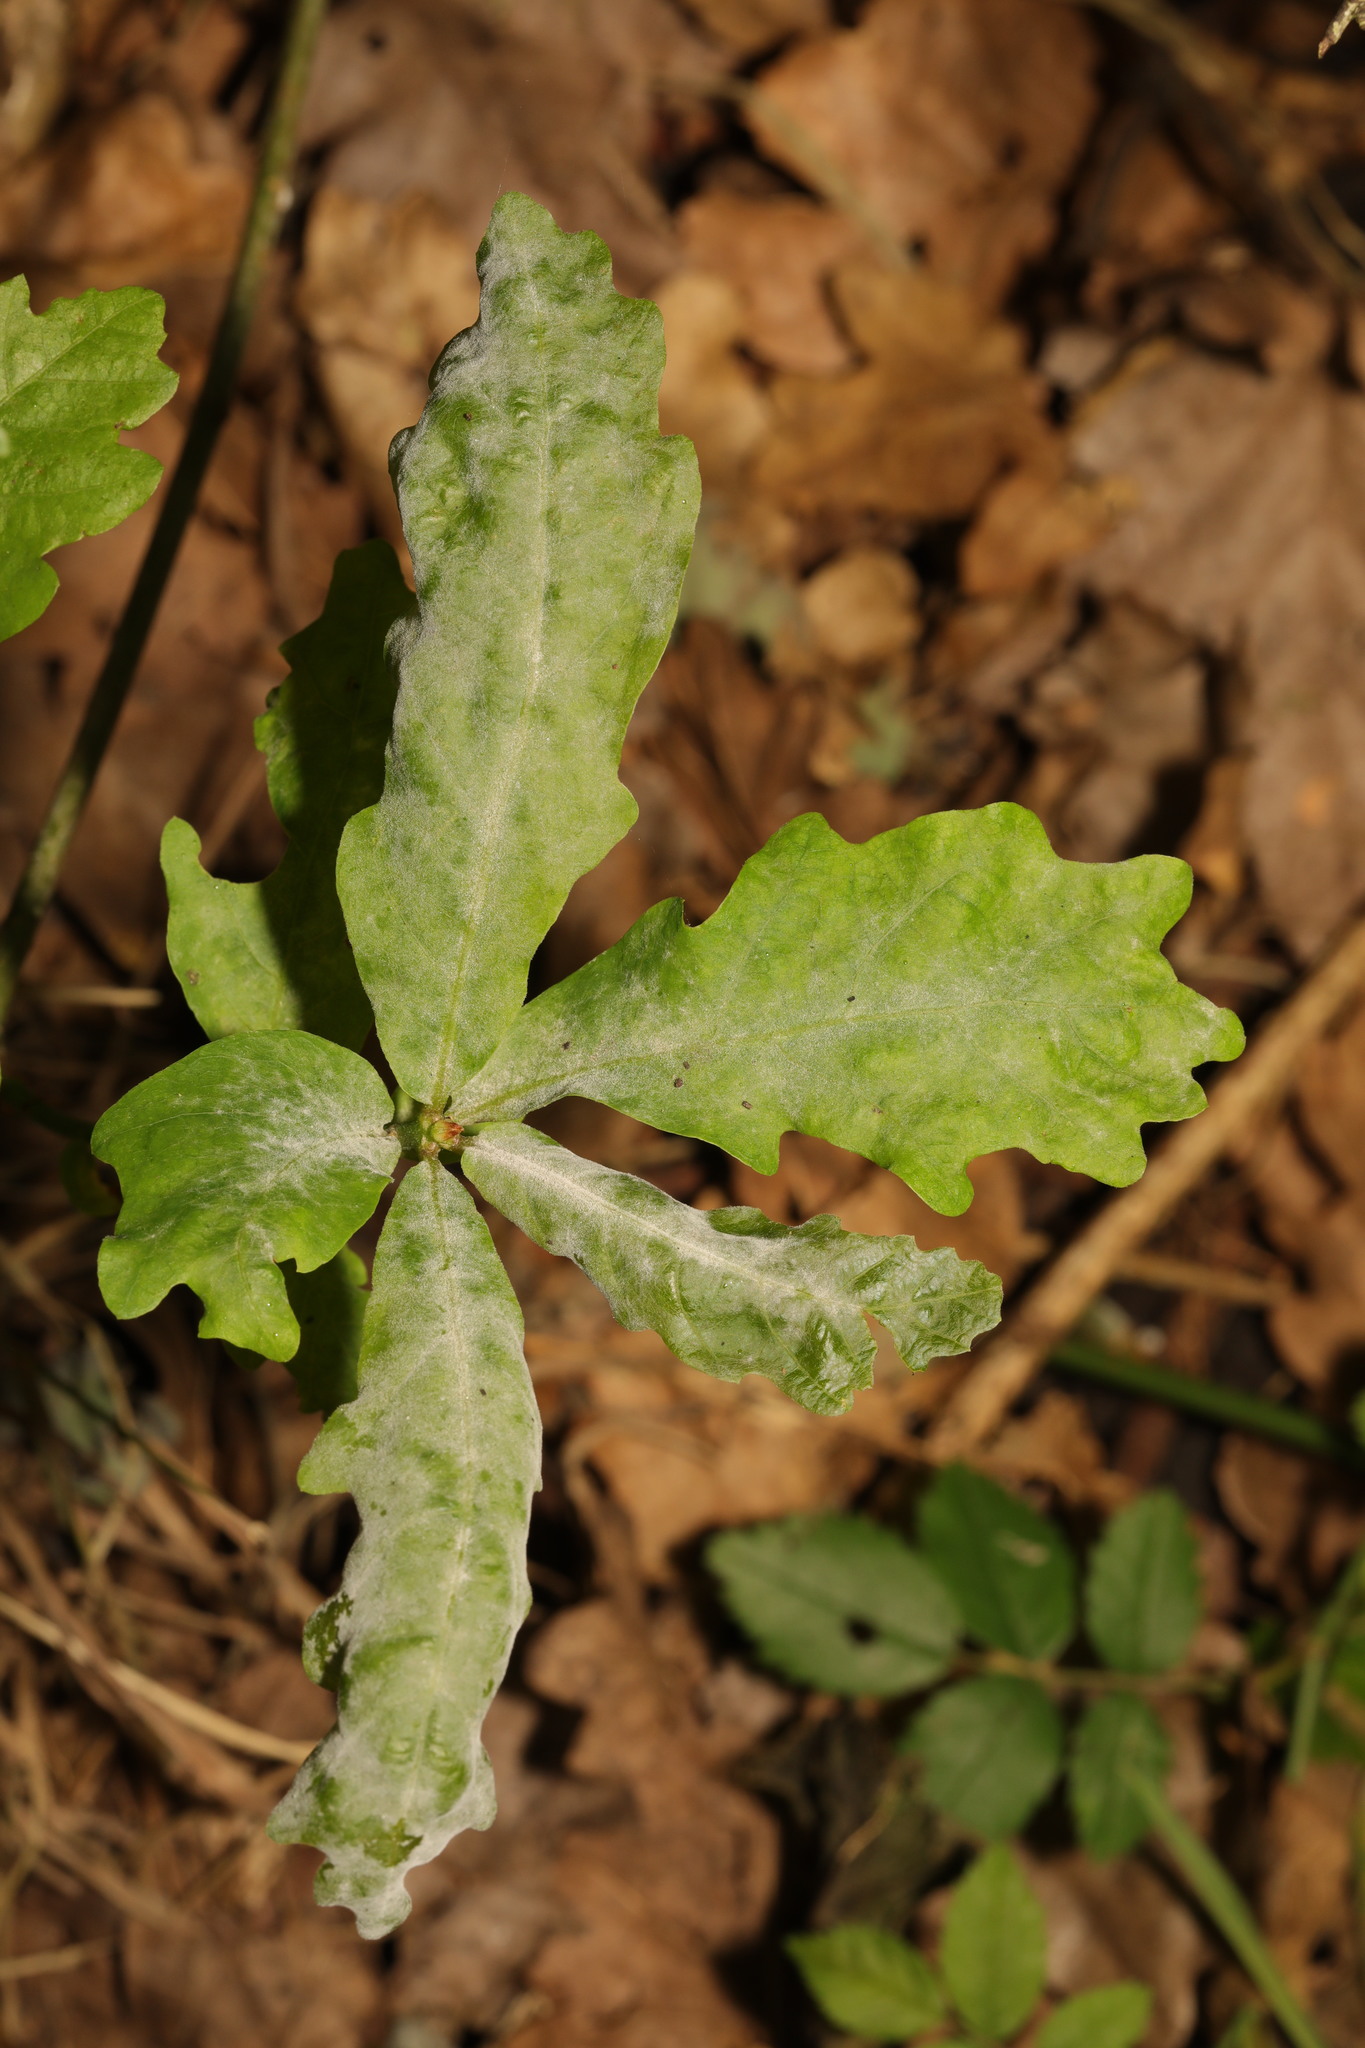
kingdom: Fungi
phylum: Ascomycota
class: Leotiomycetes
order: Helotiales
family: Erysiphaceae
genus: Erysiphe
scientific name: Erysiphe alphitoides
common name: Oak mildew
